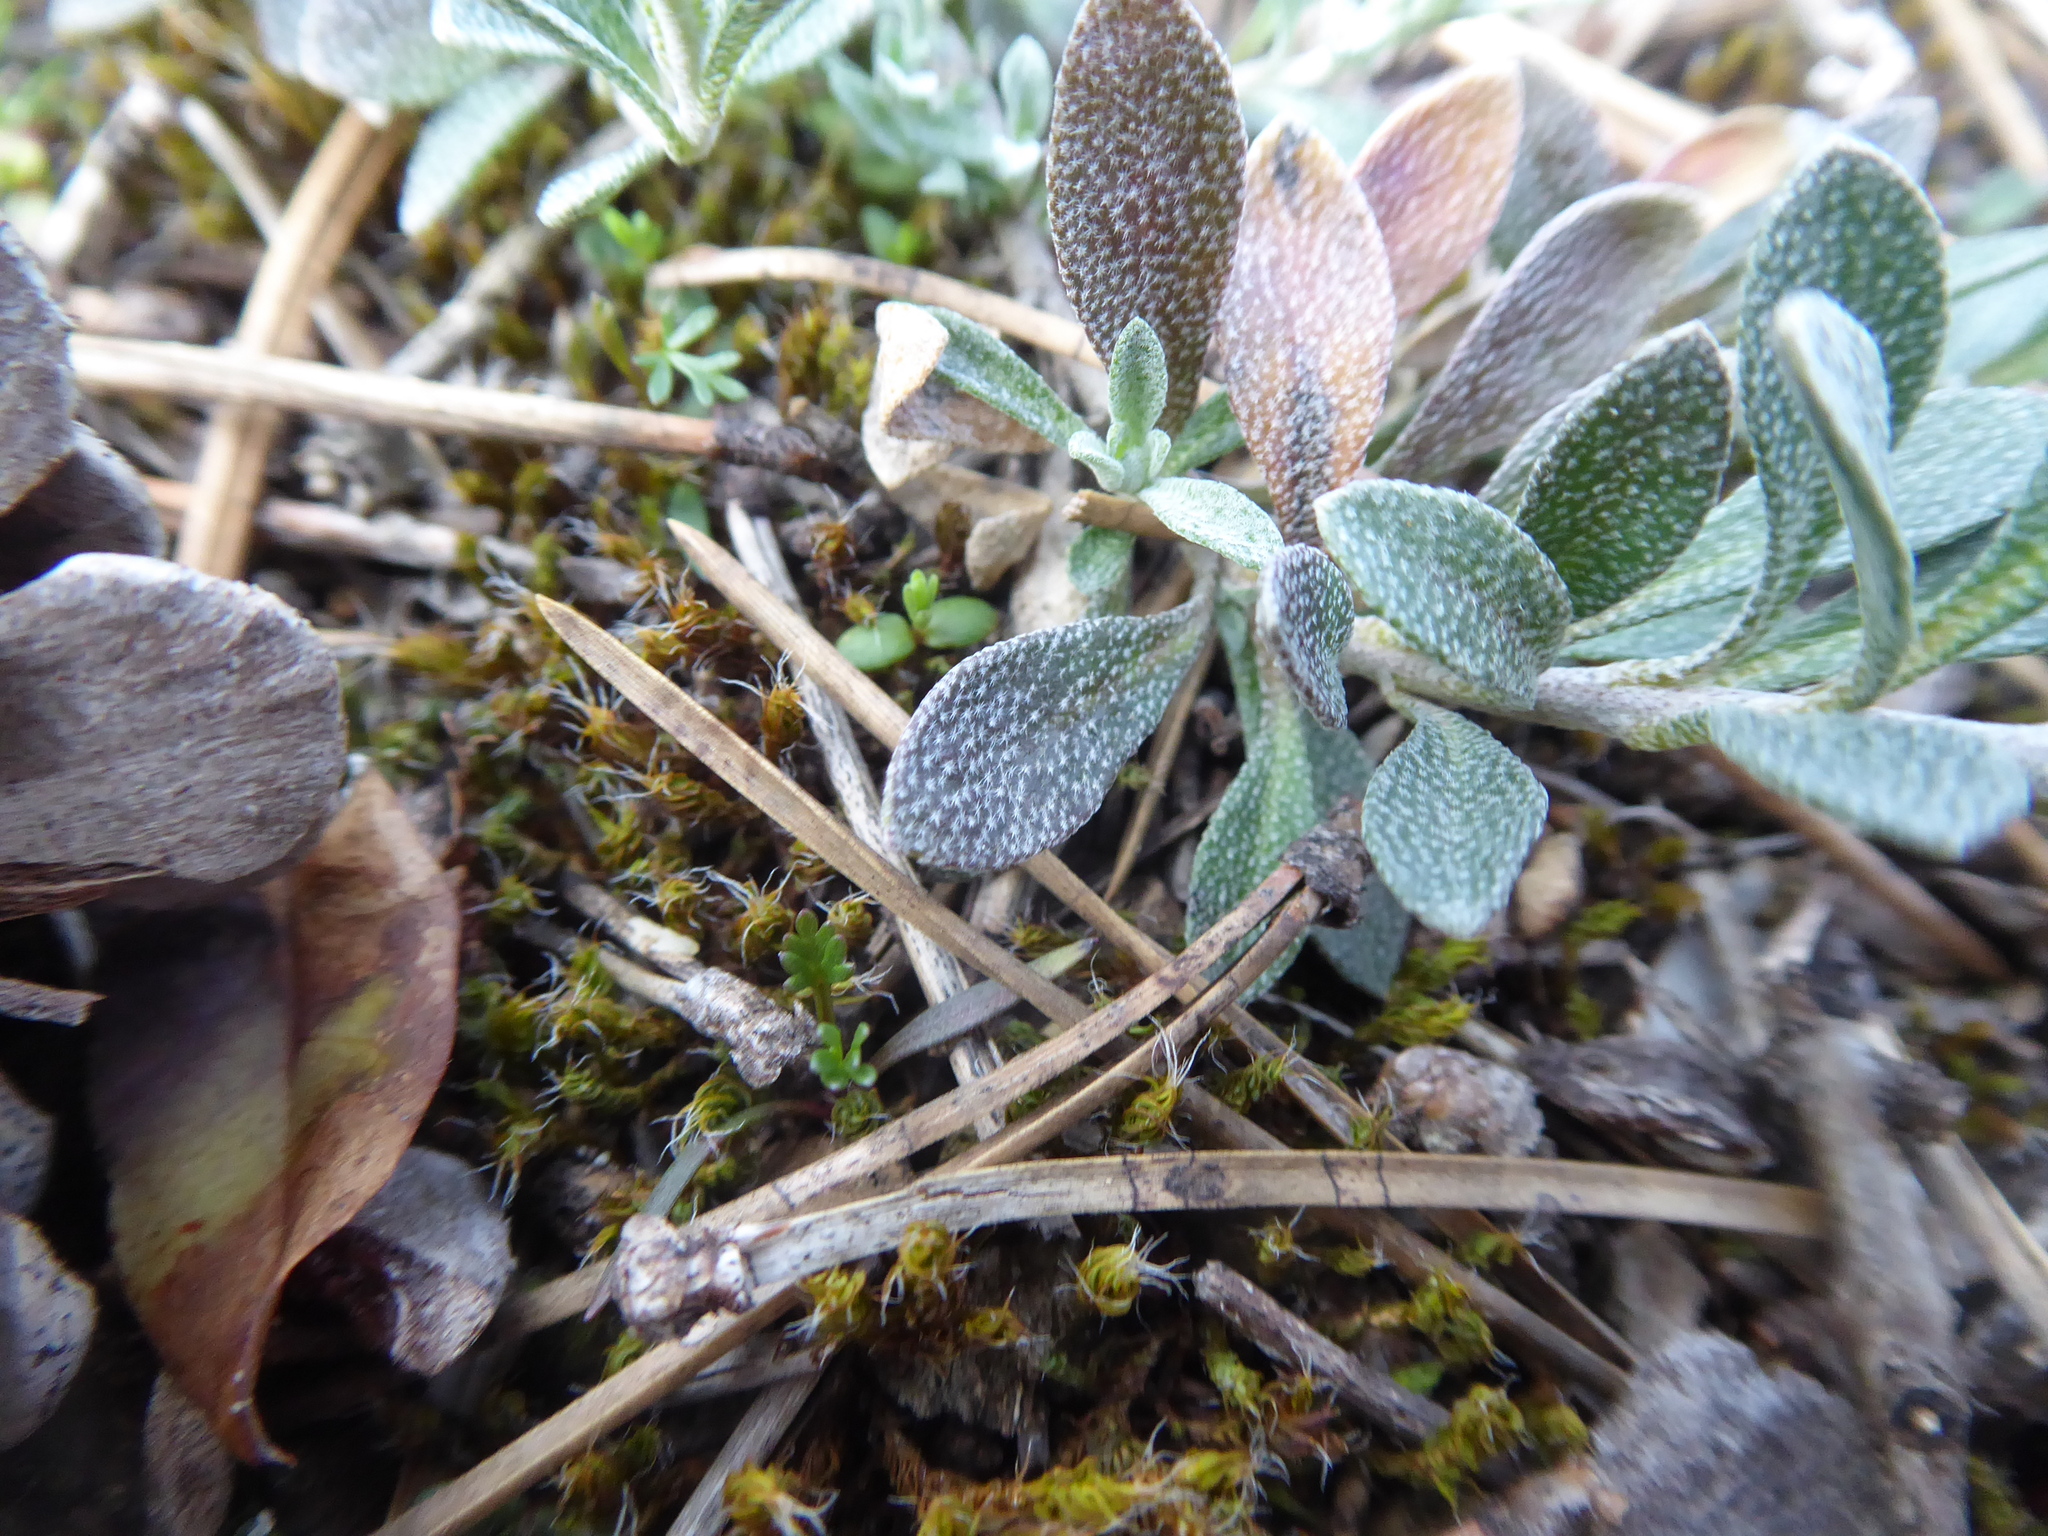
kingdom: Plantae
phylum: Tracheophyta
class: Magnoliopsida
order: Brassicales
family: Brassicaceae
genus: Alyssum
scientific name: Alyssum gmelinii
